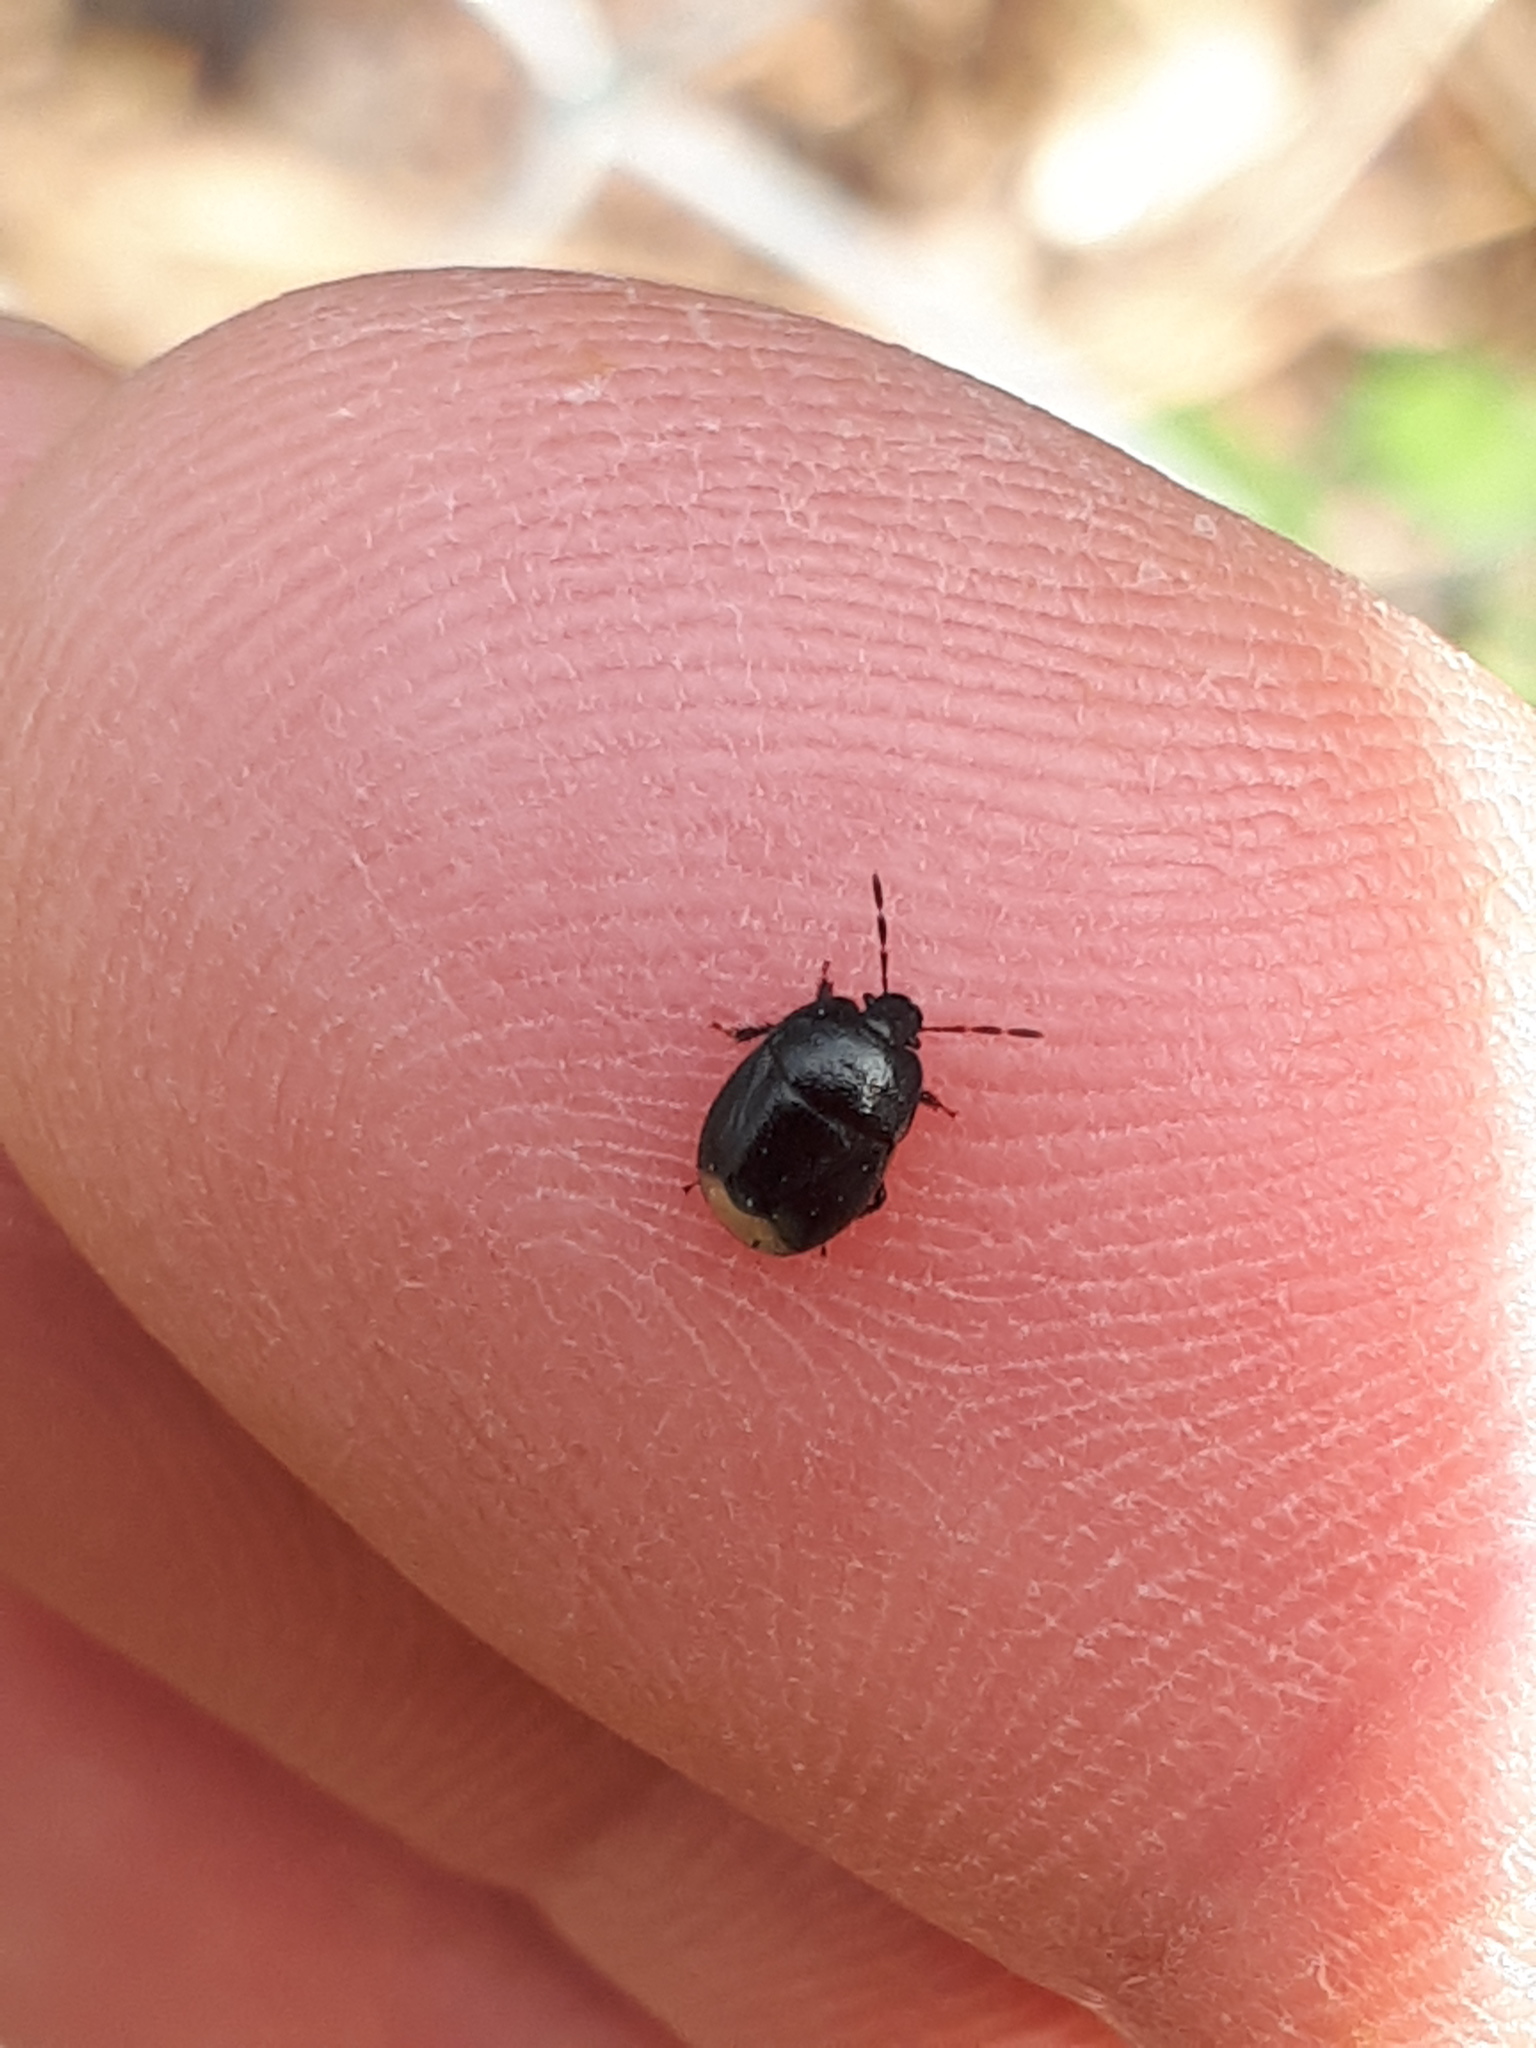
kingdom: Animalia
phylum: Arthropoda
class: Insecta
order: Hemiptera
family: Cydnidae
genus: Legnotus
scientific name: Legnotus picipes
